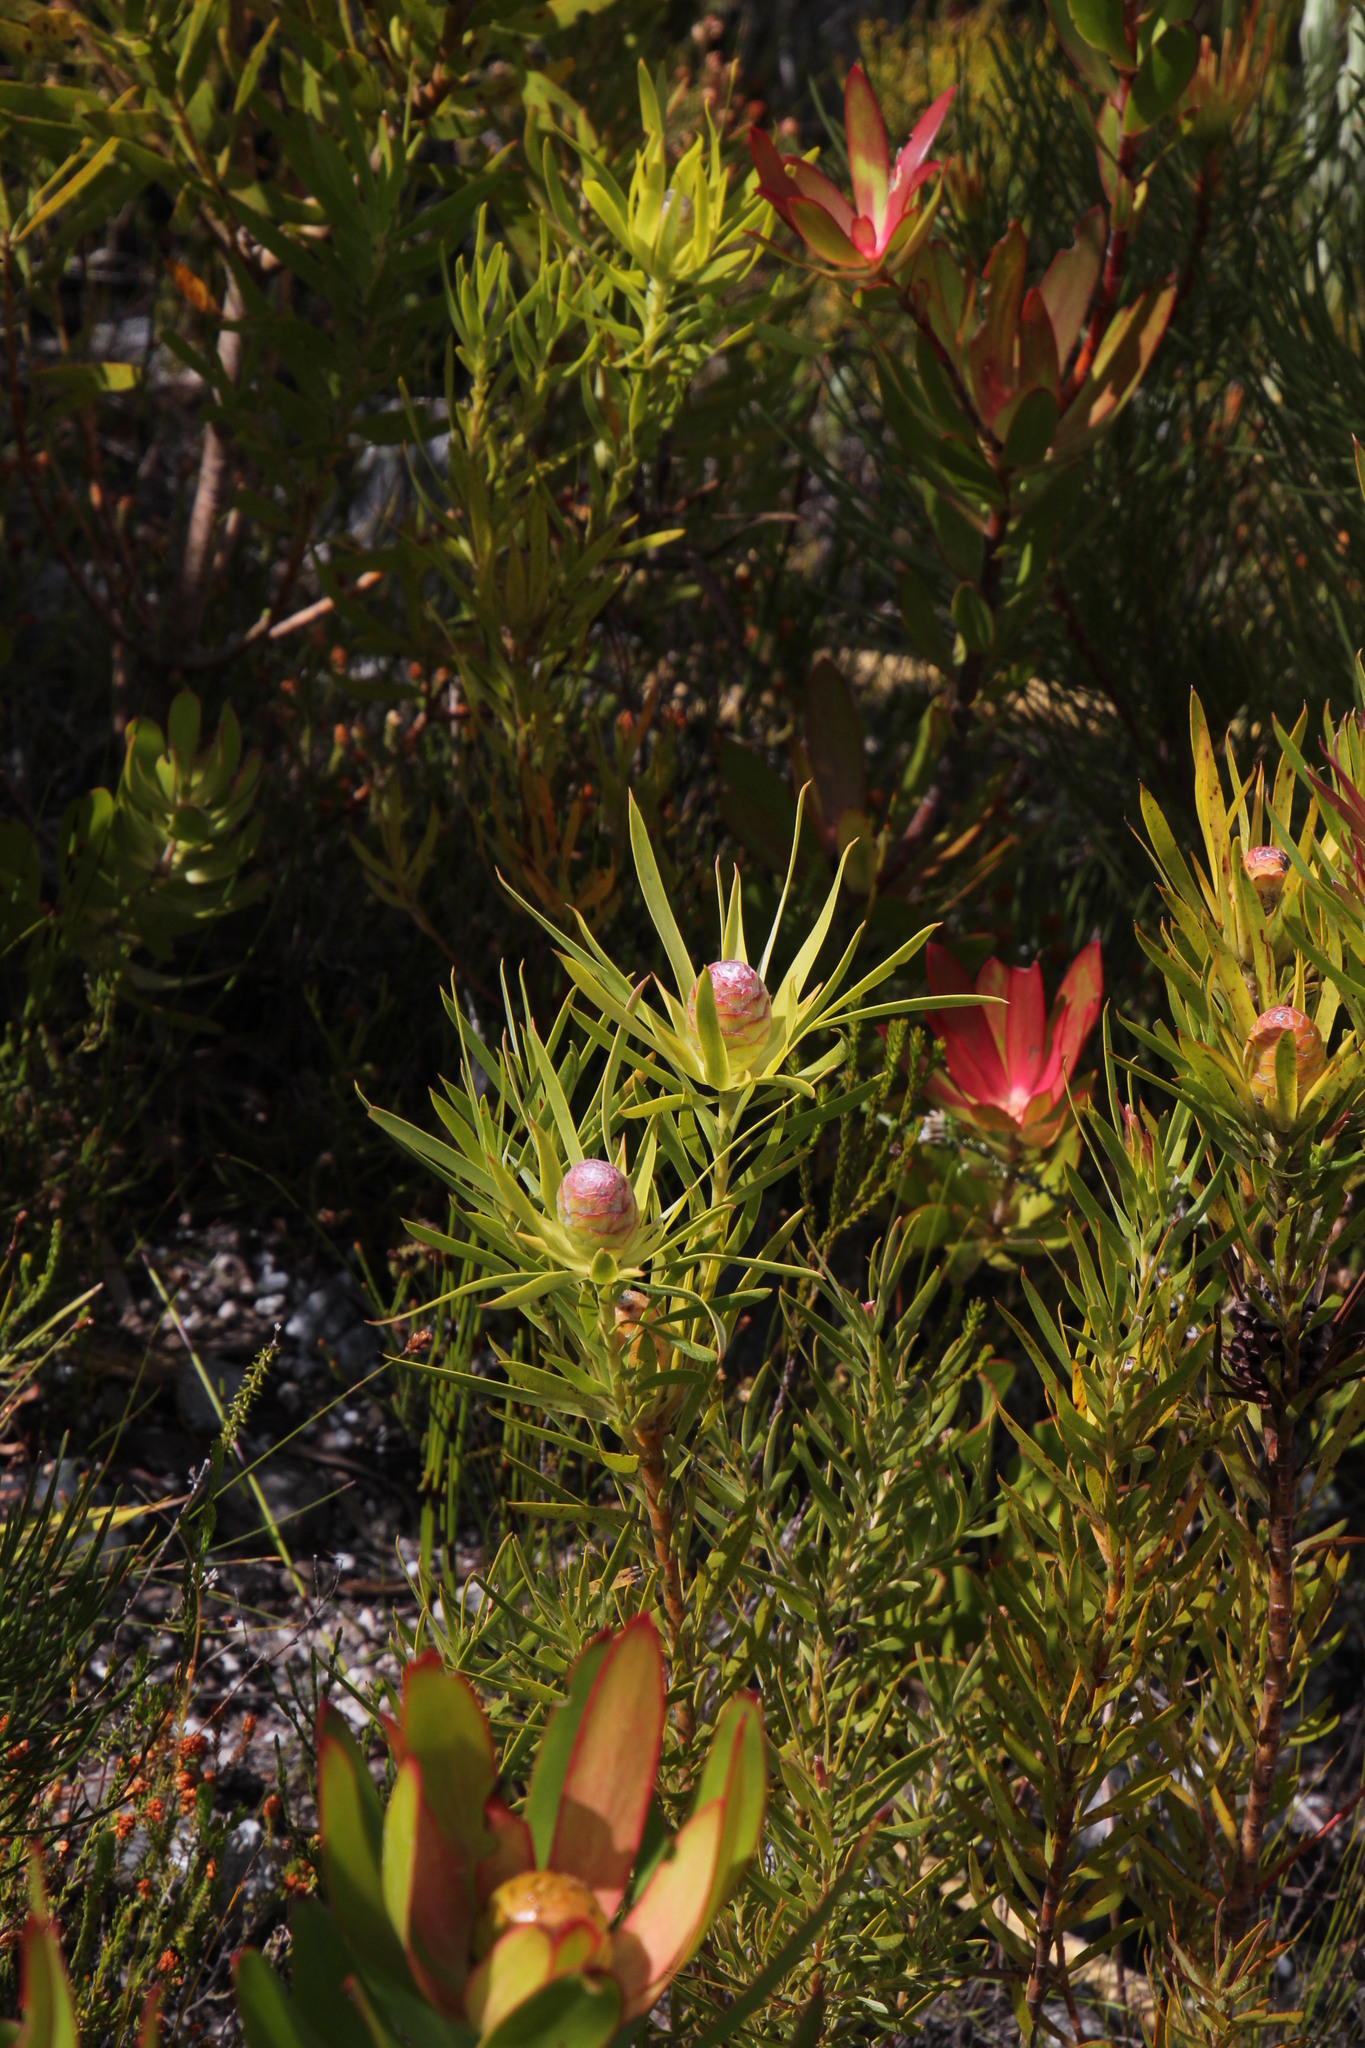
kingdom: Plantae
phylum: Tracheophyta
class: Magnoliopsida
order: Proteales
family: Proteaceae
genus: Leucadendron
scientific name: Leucadendron xanthoconus
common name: Sickle-leaf conebush
